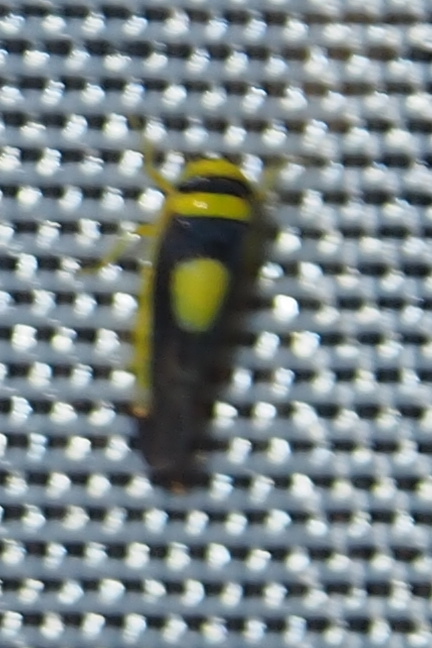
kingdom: Animalia
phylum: Arthropoda
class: Insecta
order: Hemiptera
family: Cicadellidae
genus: Colladonus
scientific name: Colladonus clitellarius
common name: The saddleback leafhopper
